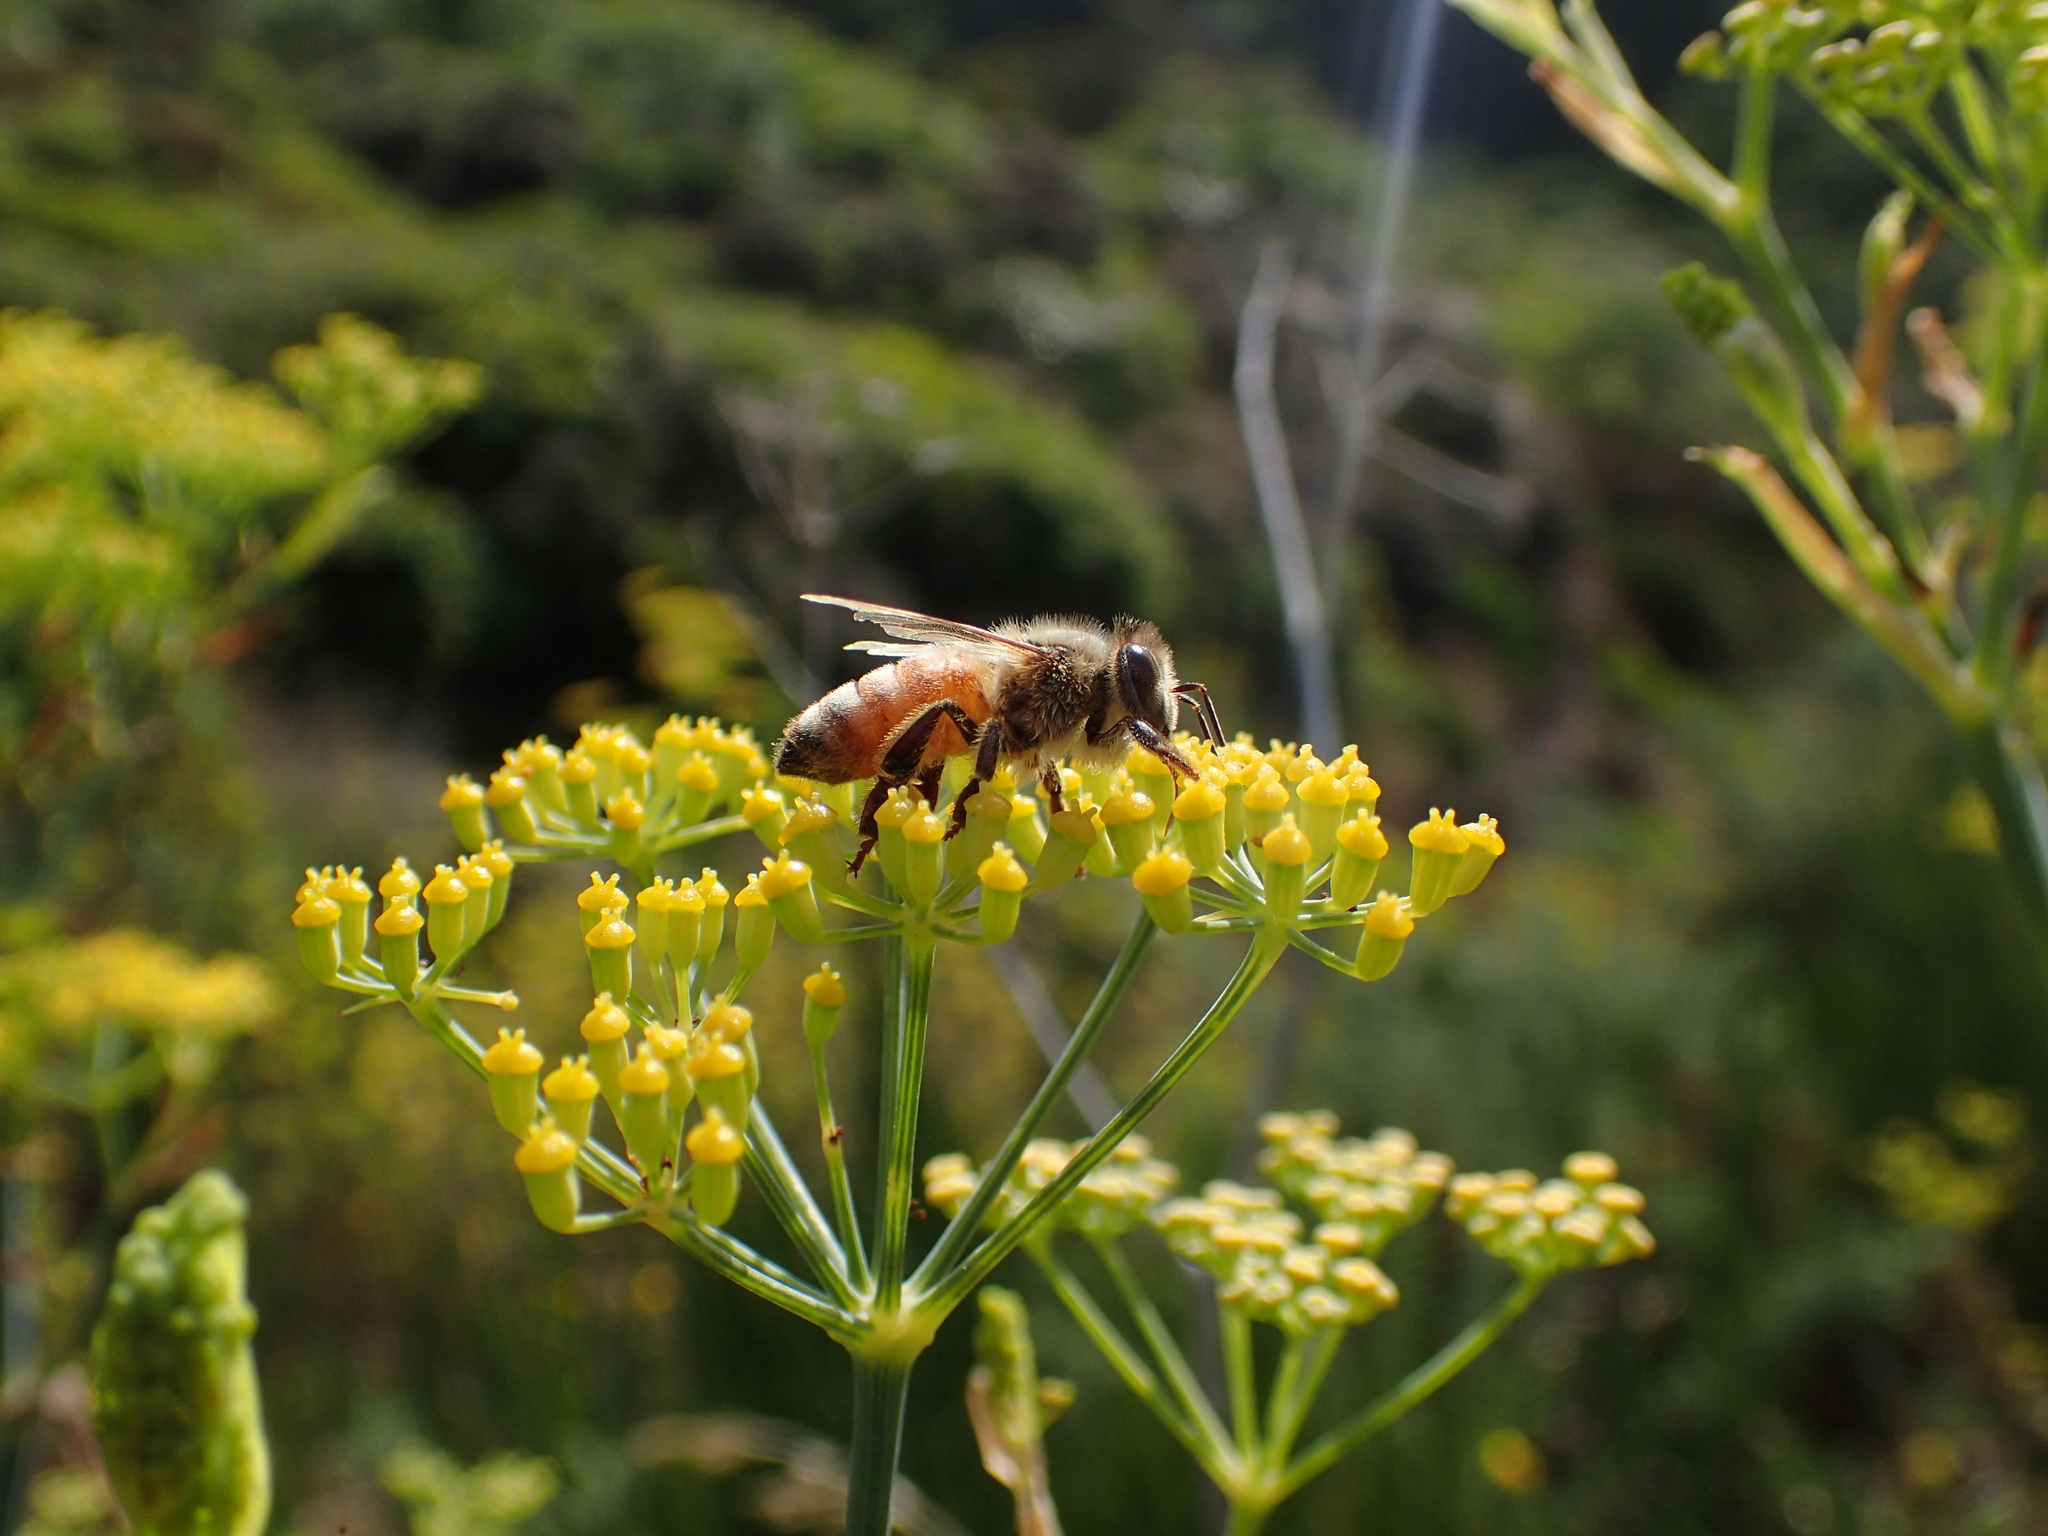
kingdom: Animalia
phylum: Arthropoda
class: Insecta
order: Hymenoptera
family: Apidae
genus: Apis
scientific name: Apis mellifera
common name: Honey bee
